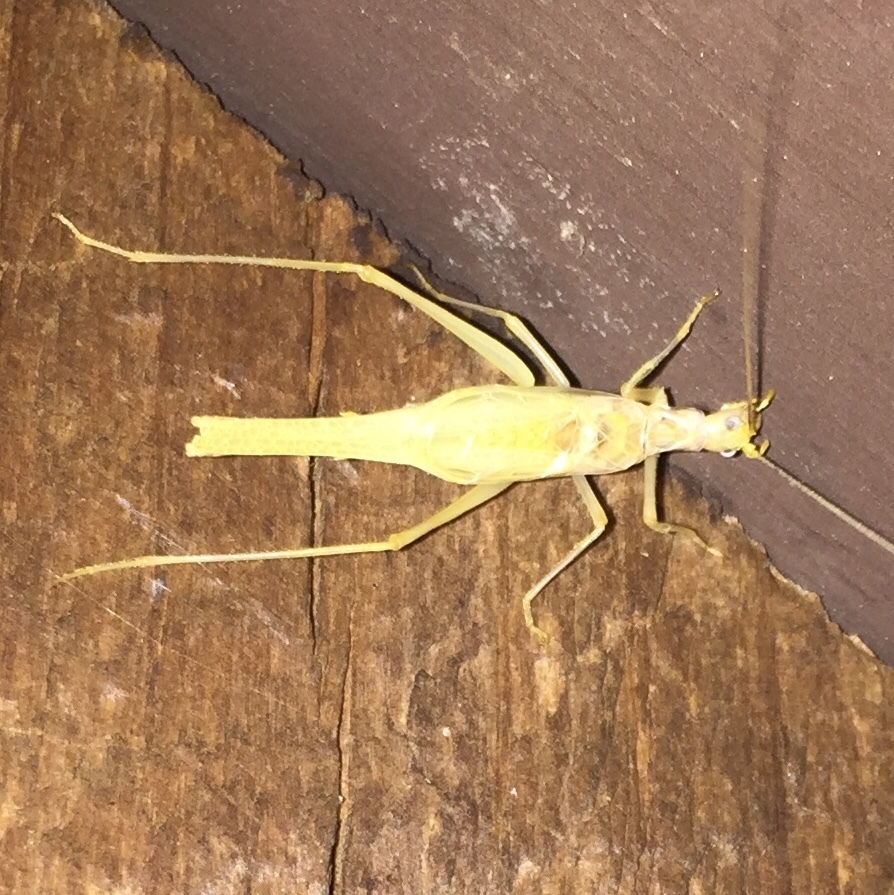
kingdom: Animalia
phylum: Arthropoda
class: Insecta
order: Orthoptera
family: Gryllidae
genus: Neoxabea
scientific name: Neoxabea bipunctata
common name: Two-spotted tree cricket
